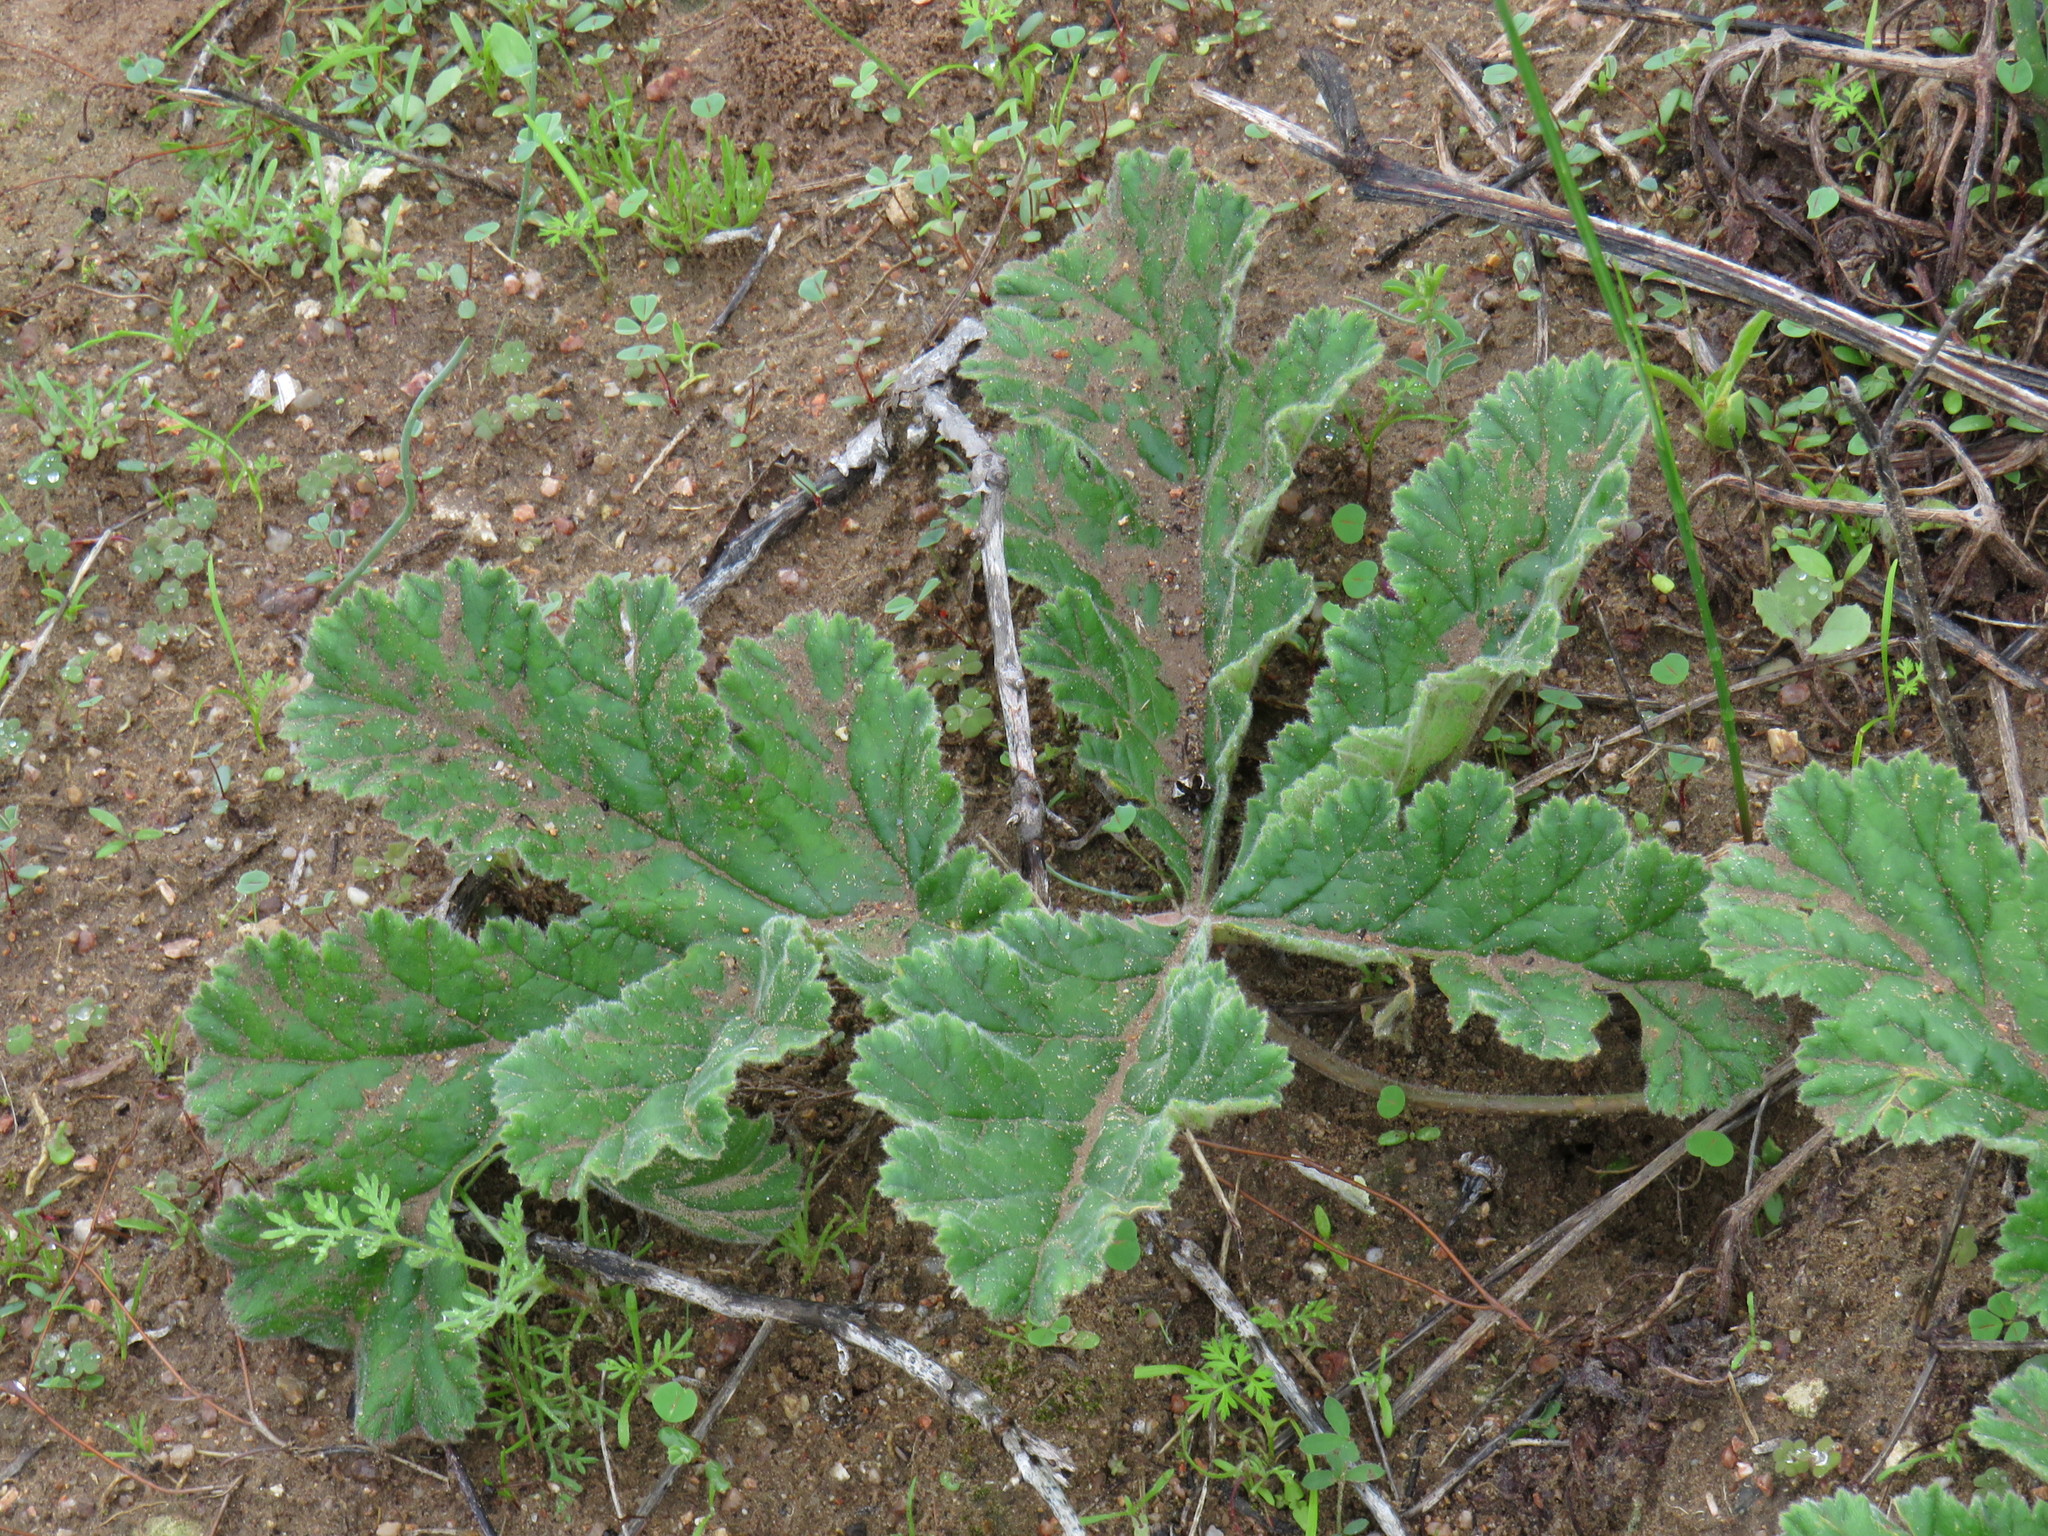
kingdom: Plantae
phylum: Tracheophyta
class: Magnoliopsida
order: Geraniales
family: Geraniaceae
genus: Pelargonium
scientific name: Pelargonium lobatum
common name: Vine-leaf pelargonium
